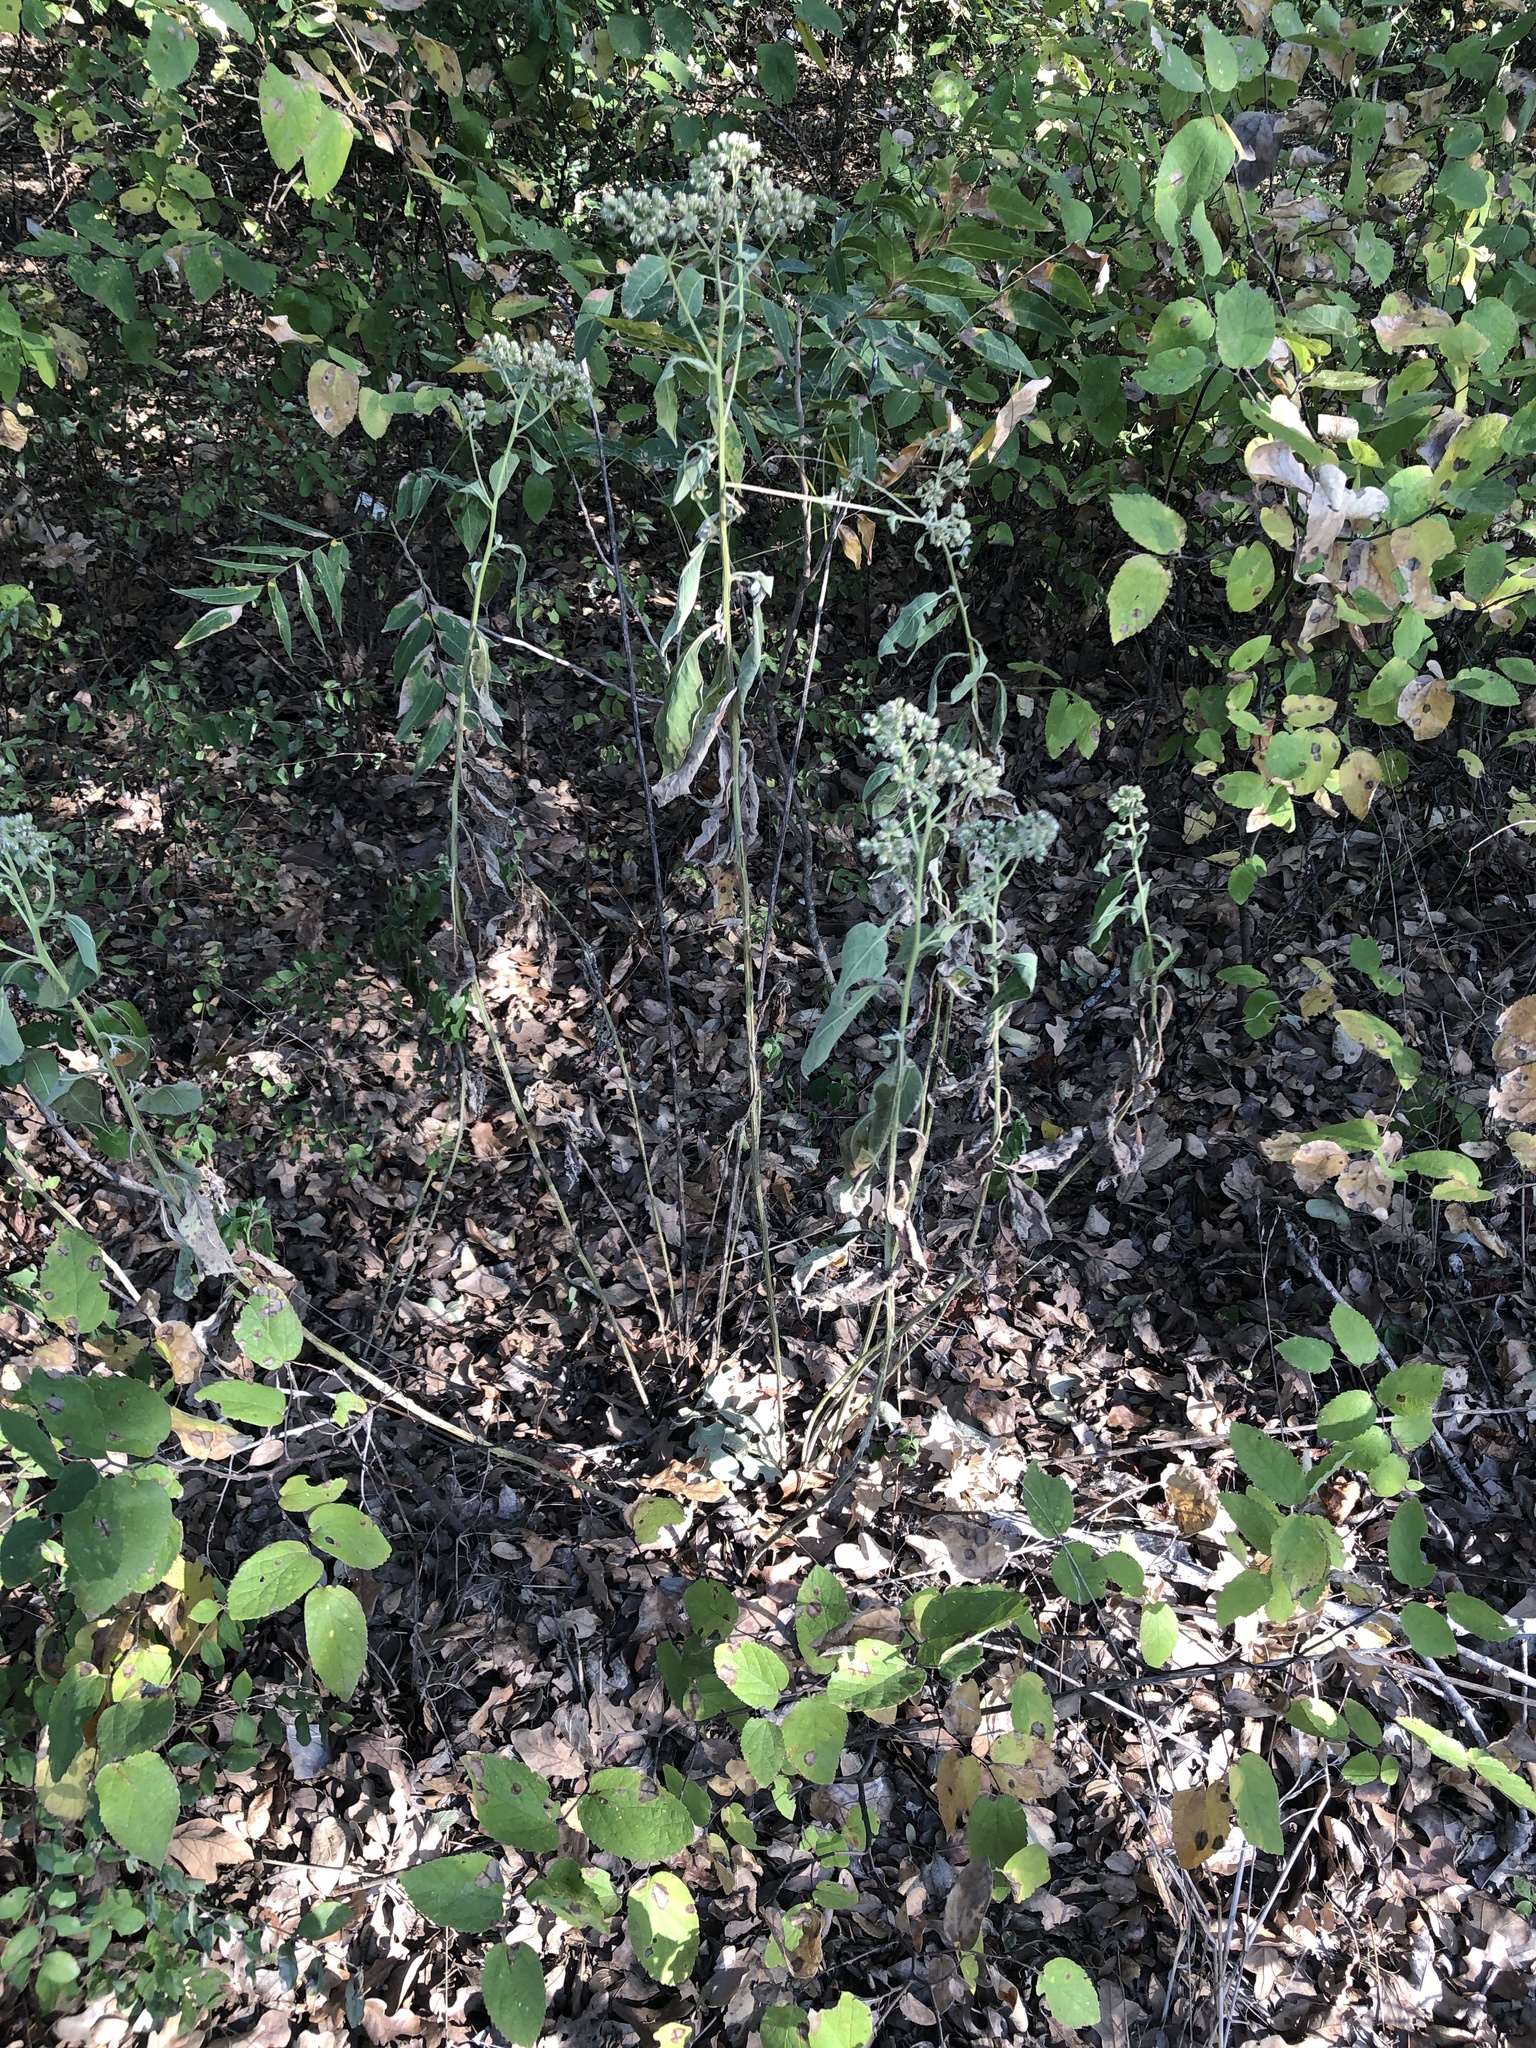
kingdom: Plantae
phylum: Tracheophyta
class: Magnoliopsida
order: Asterales
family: Asteraceae
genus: Verbesina
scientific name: Verbesina virginica
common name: Frostweed
